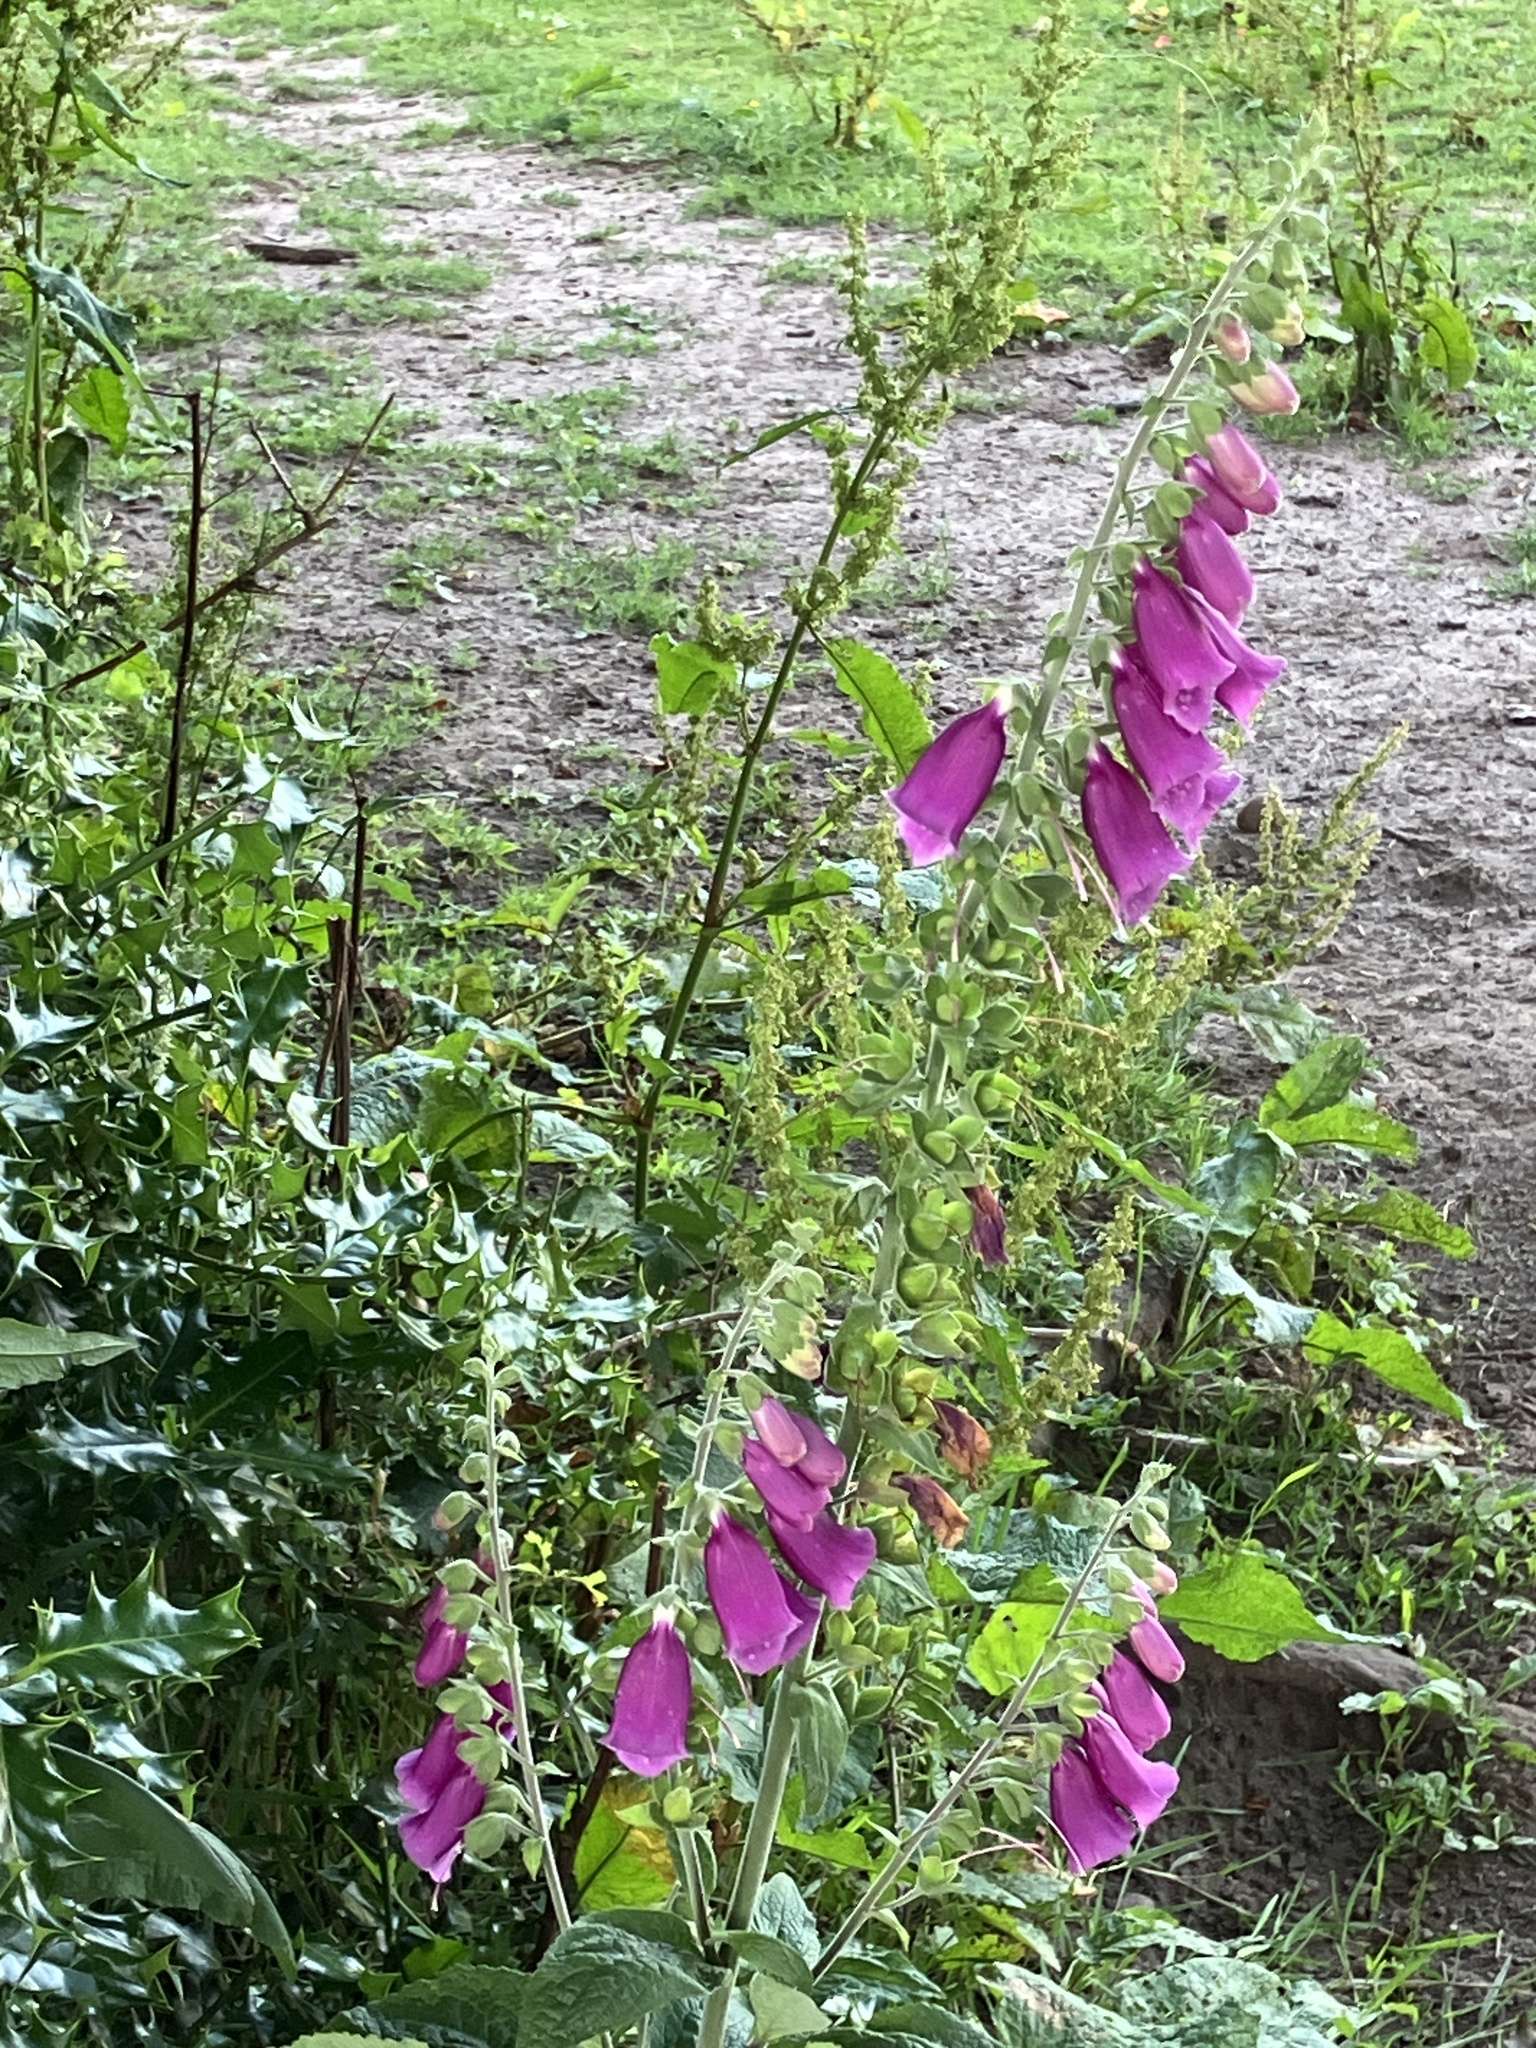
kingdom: Plantae
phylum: Tracheophyta
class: Magnoliopsida
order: Lamiales
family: Plantaginaceae
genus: Digitalis
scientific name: Digitalis purpurea
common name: Foxglove
